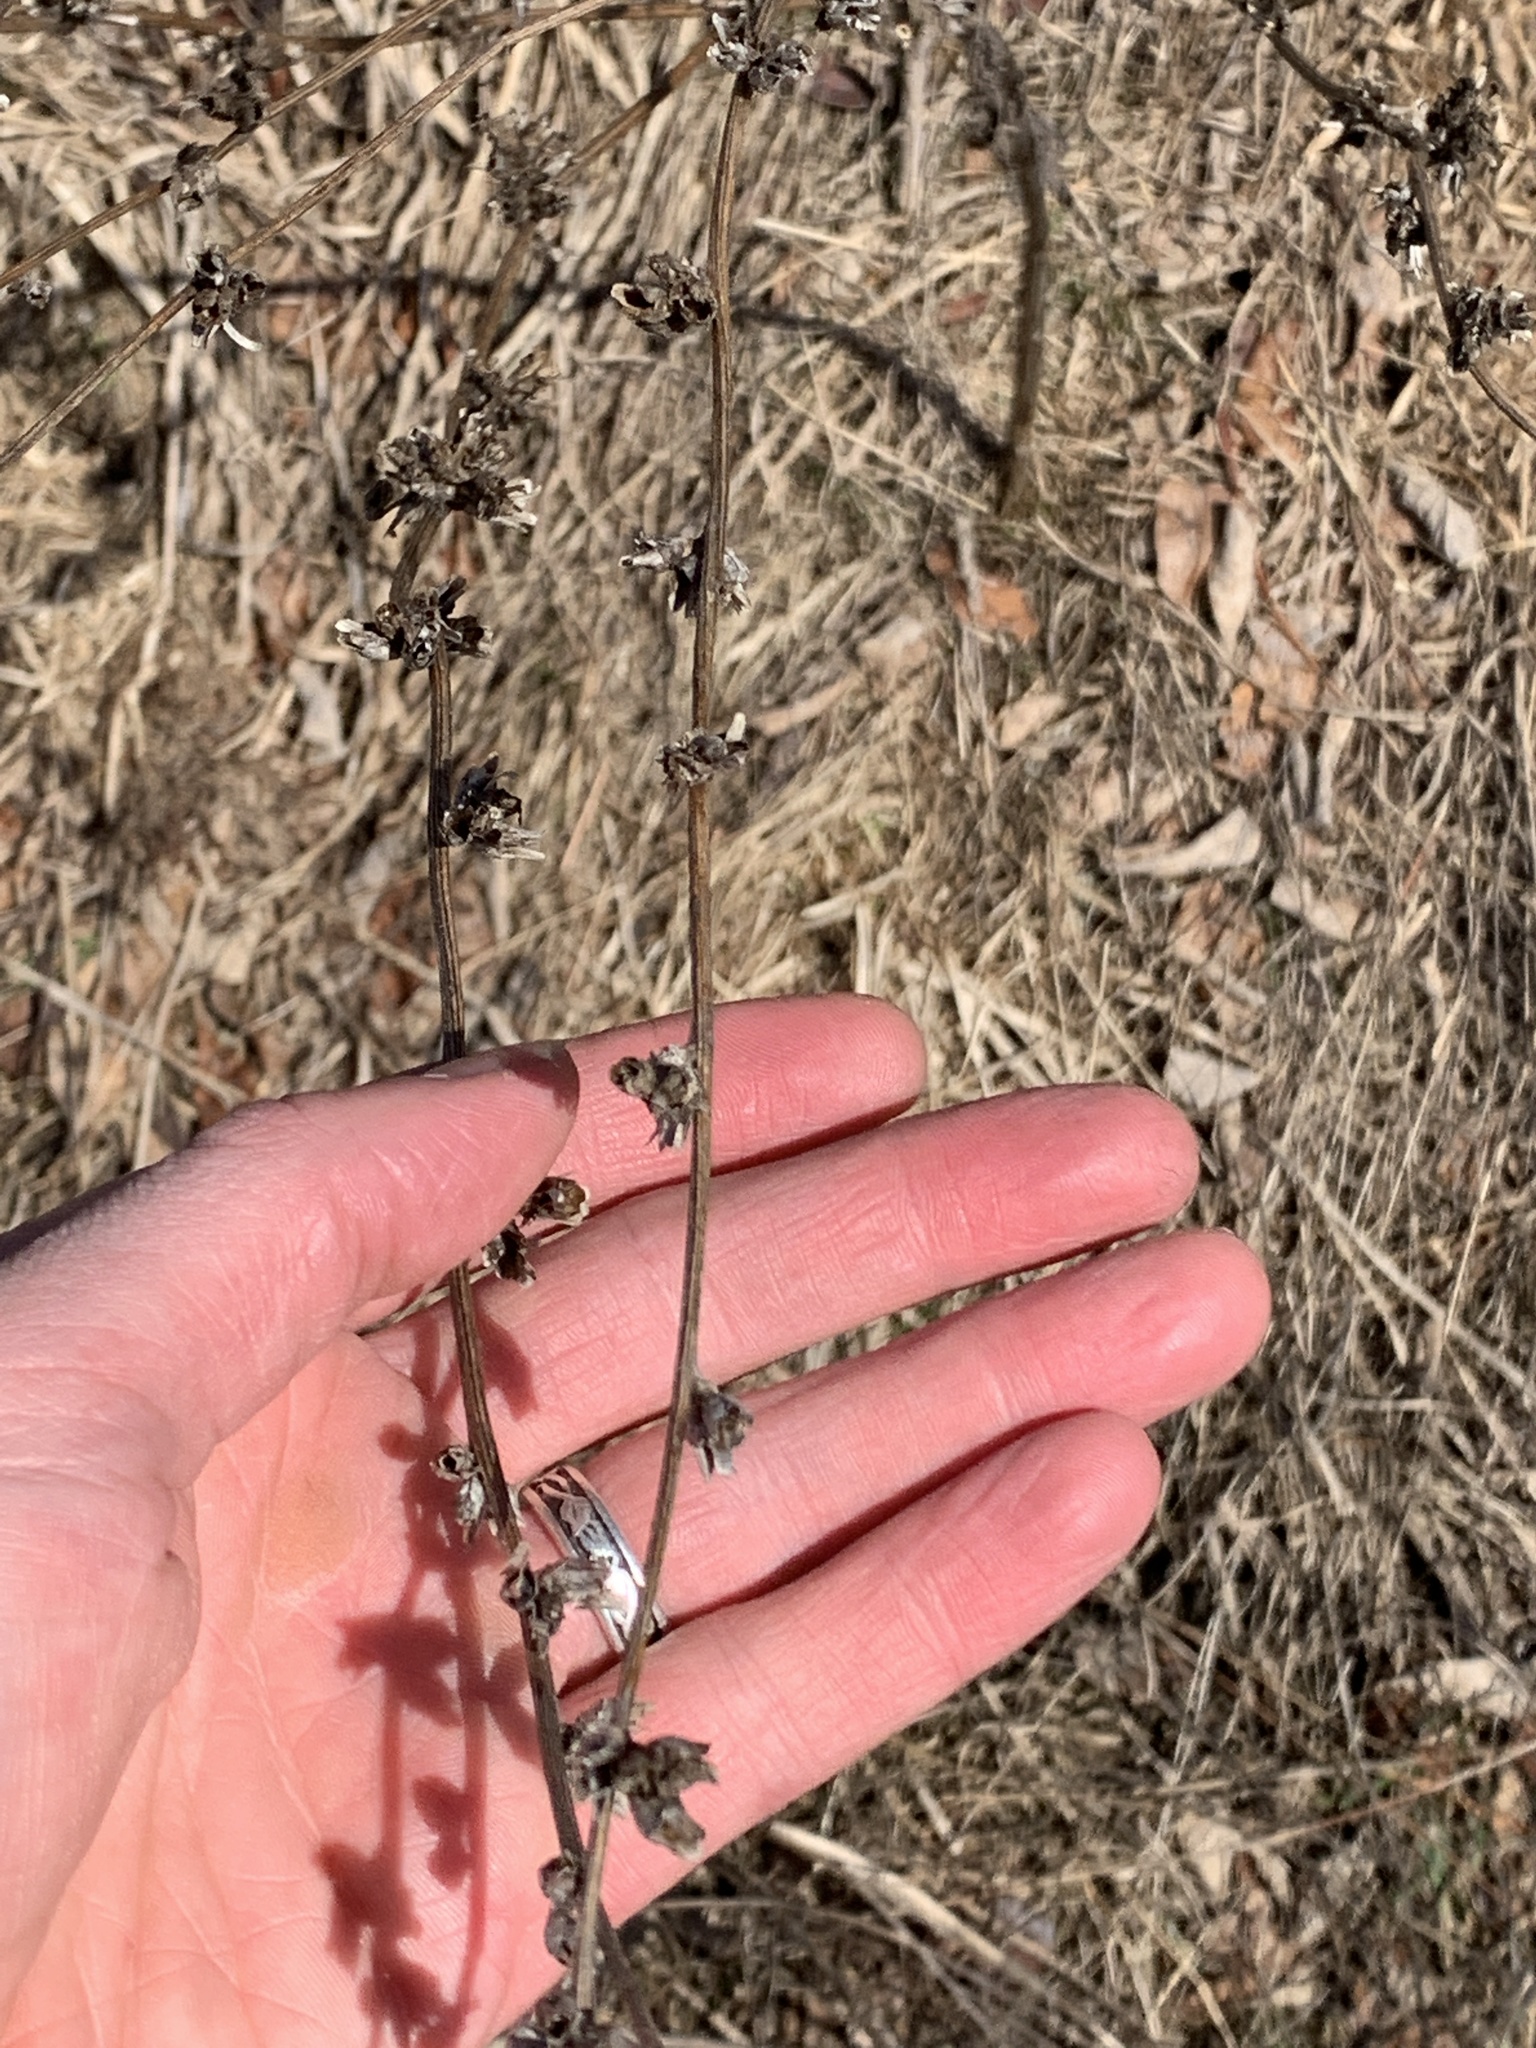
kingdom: Plantae
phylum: Tracheophyta
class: Magnoliopsida
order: Asterales
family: Asteraceae
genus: Cichorium
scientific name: Cichorium intybus
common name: Chicory
